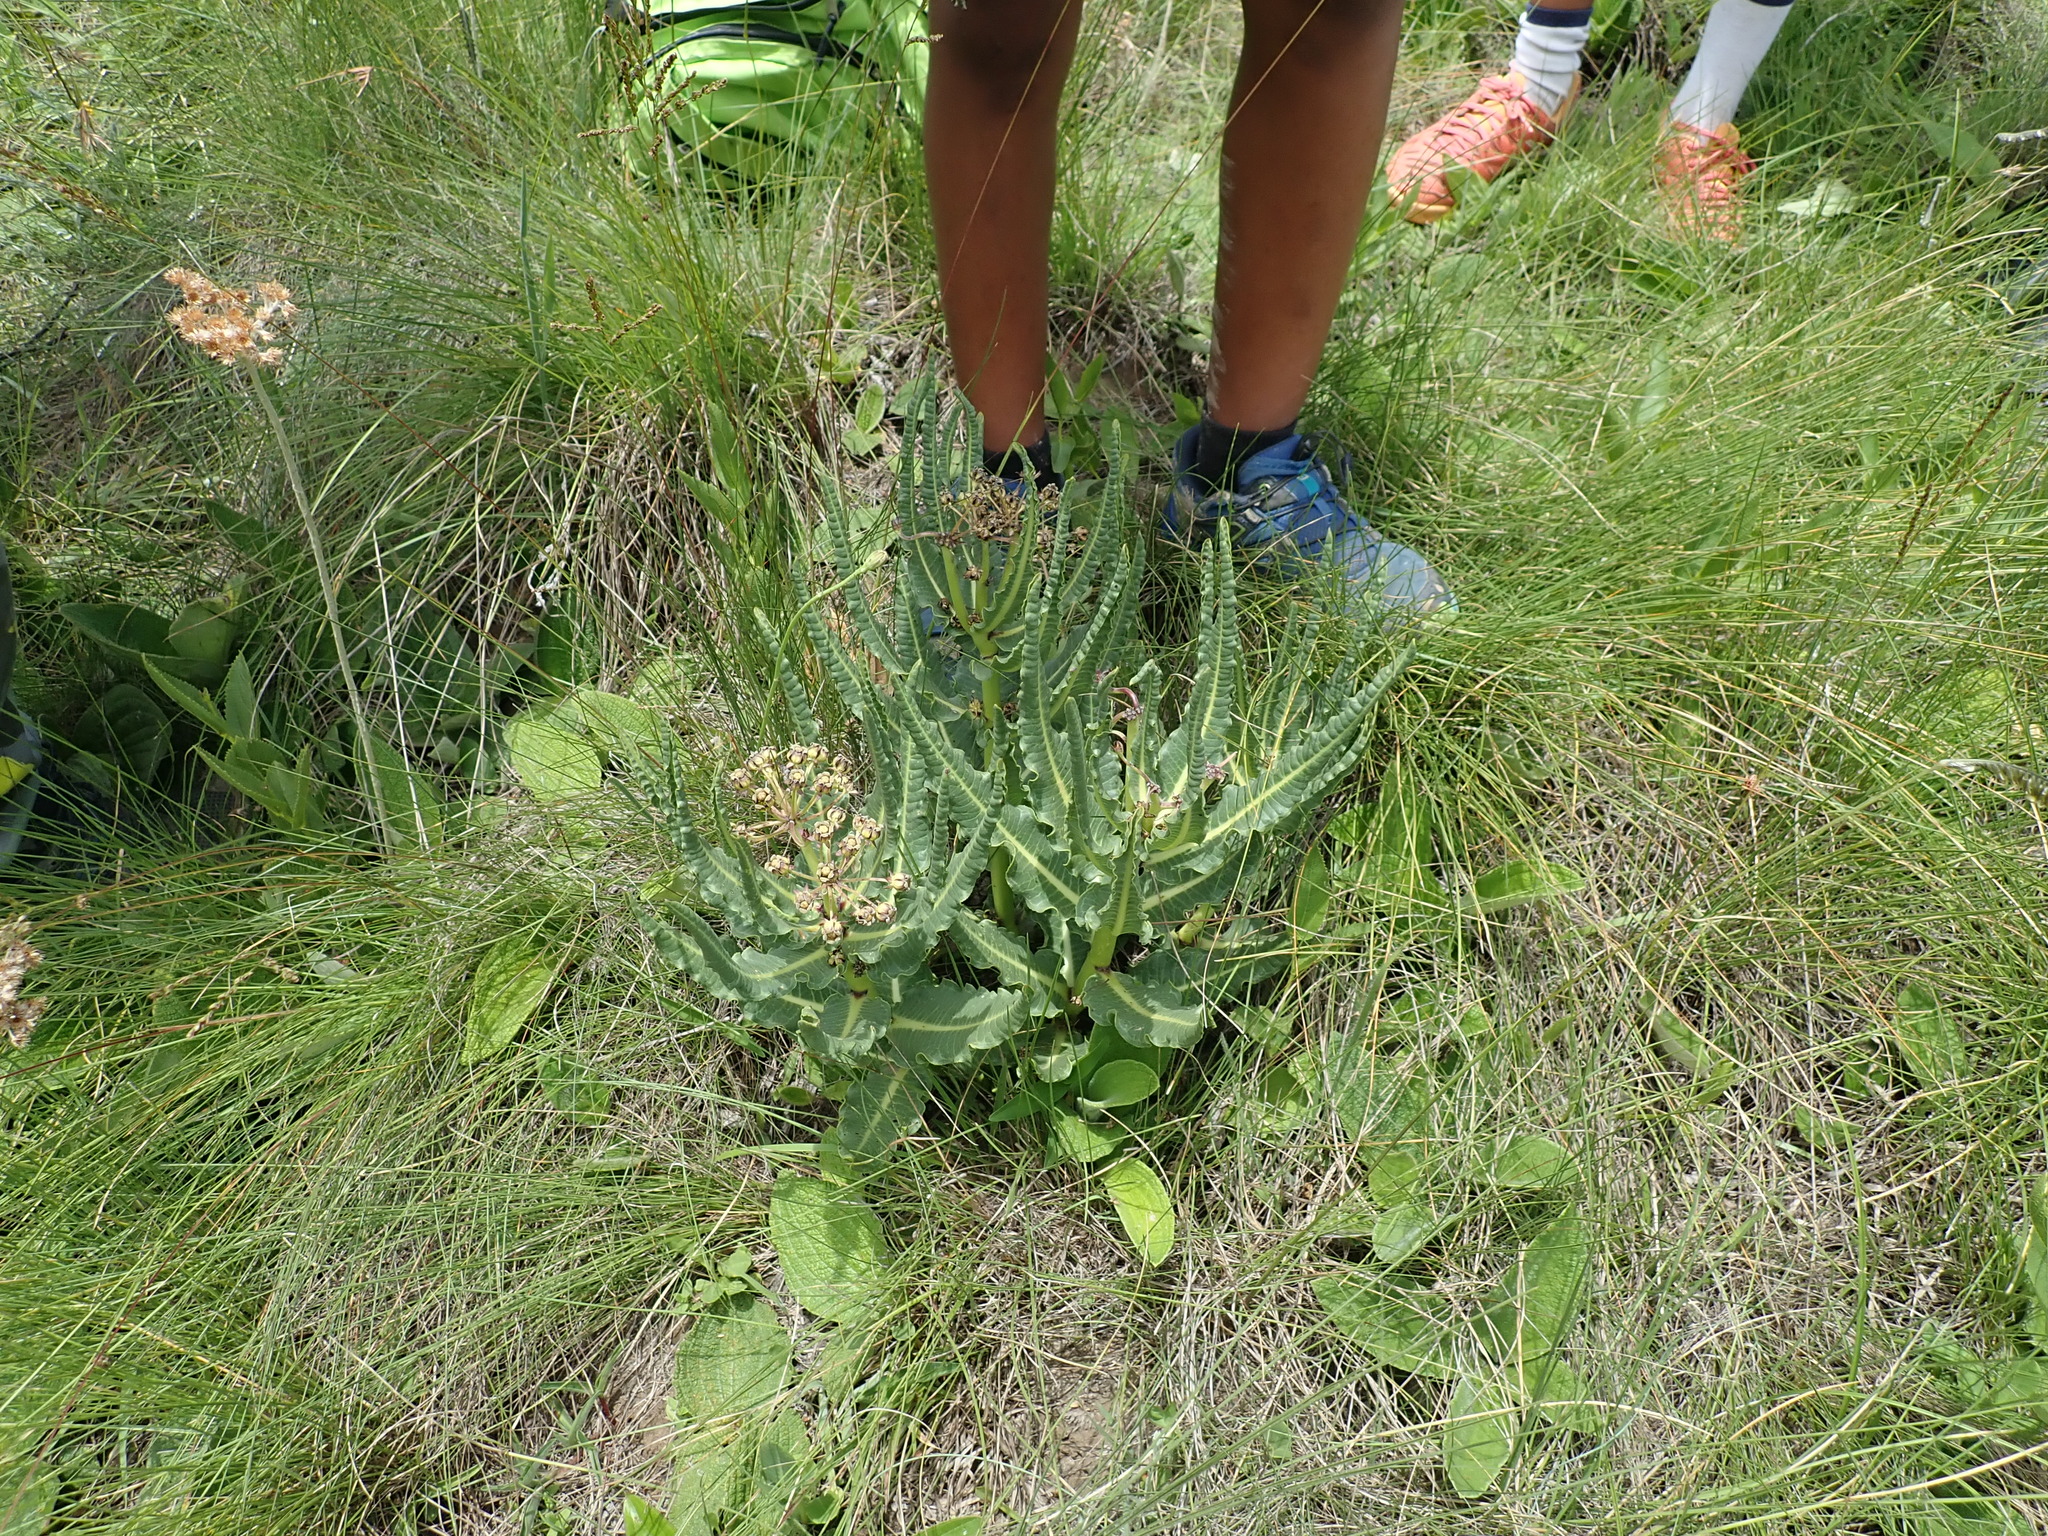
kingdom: Plantae
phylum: Tracheophyta
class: Magnoliopsida
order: Gentianales
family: Apocynaceae
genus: Xysmalobium
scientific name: Xysmalobium stockenstromense
